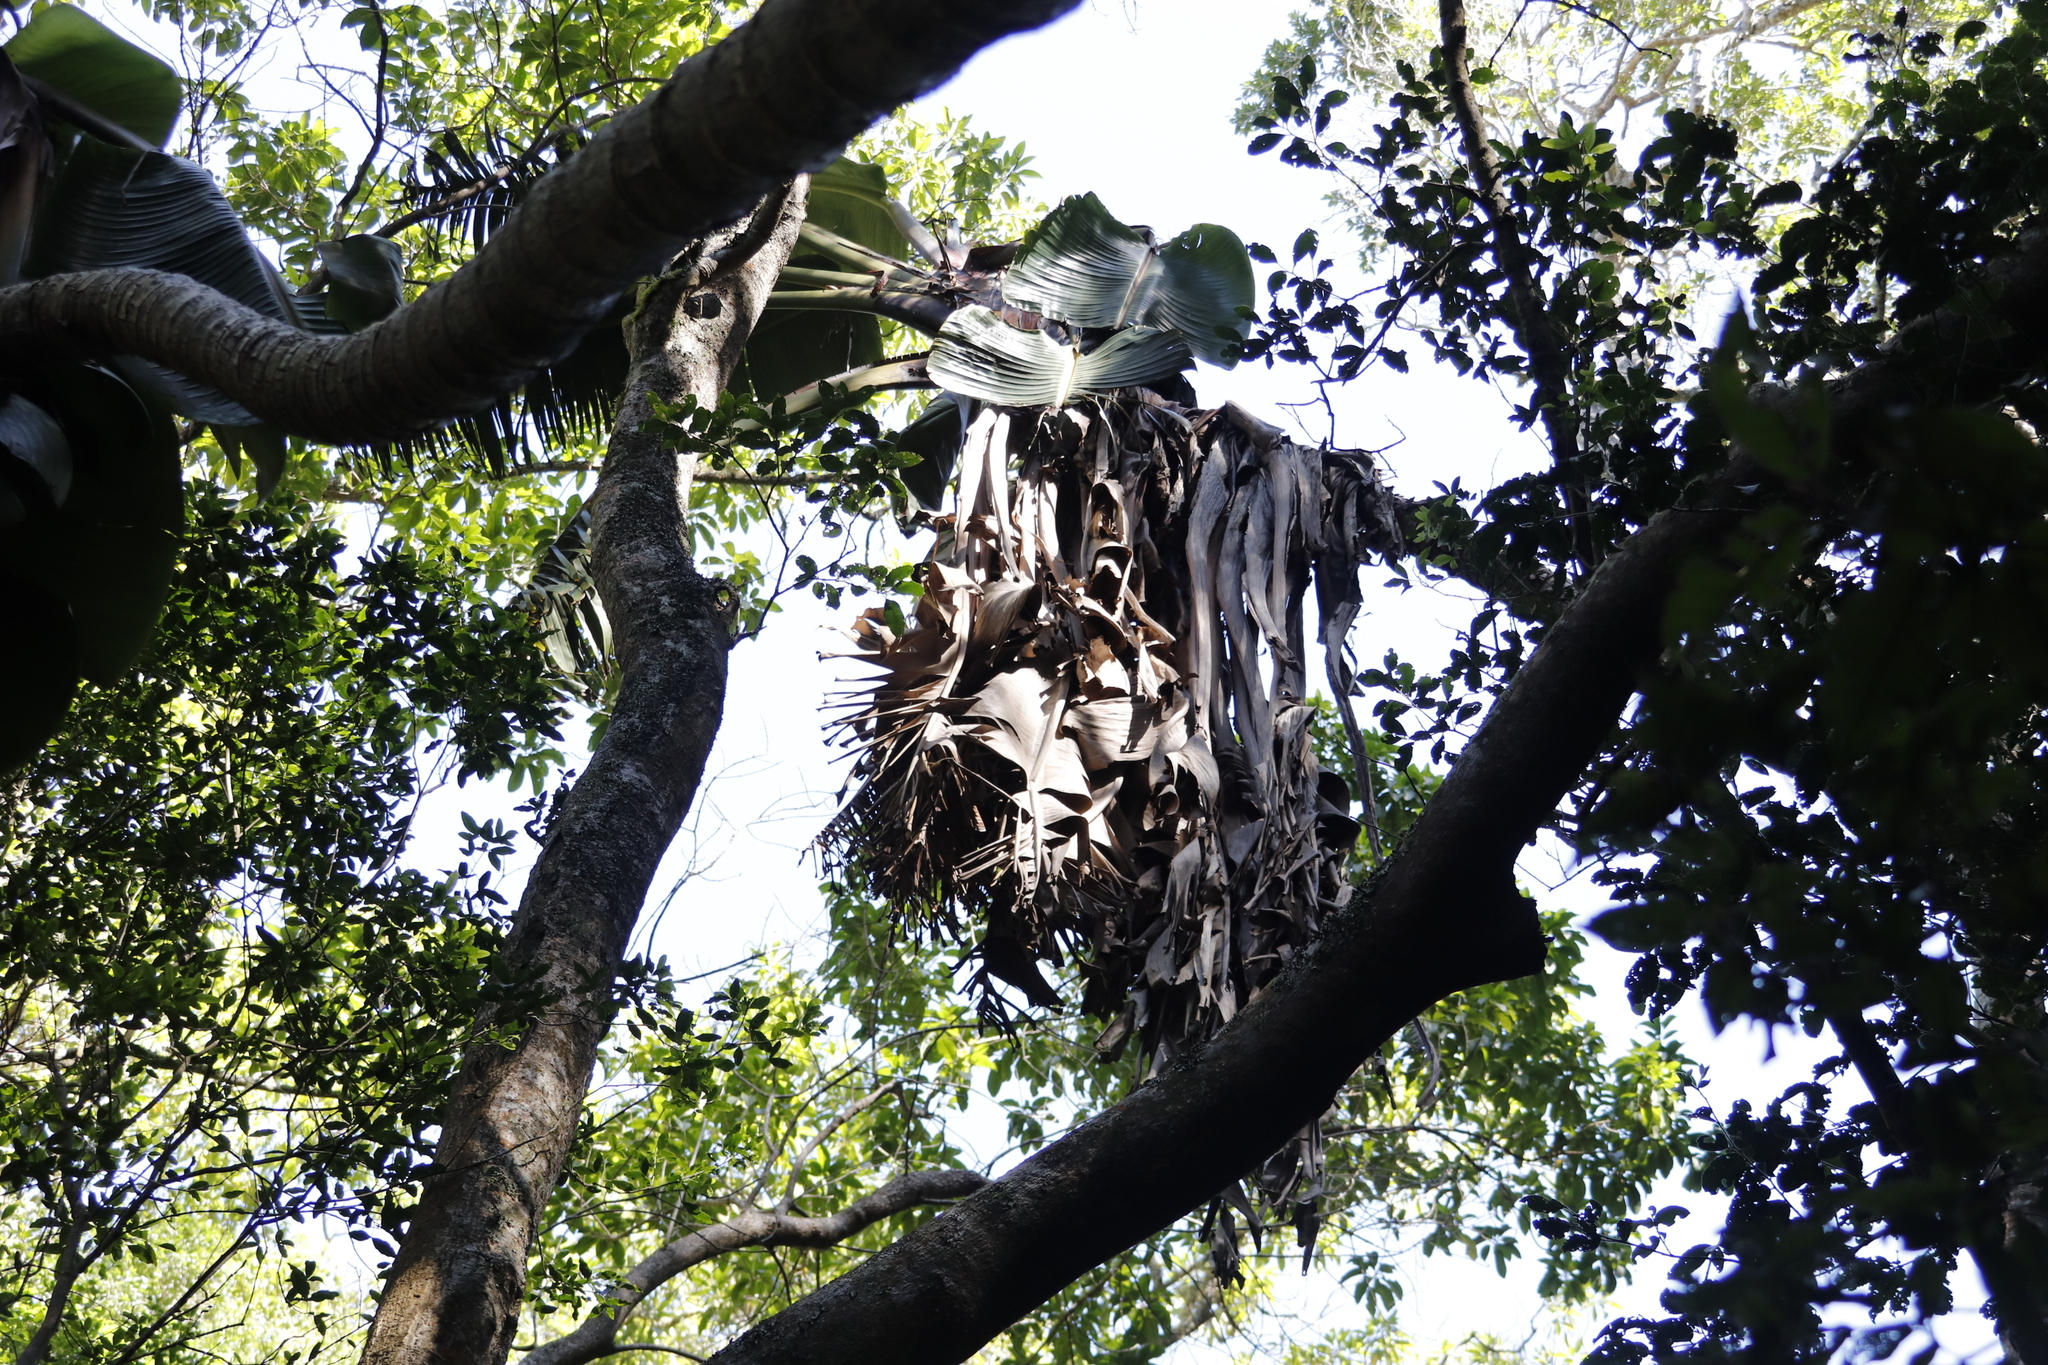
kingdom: Plantae
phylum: Tracheophyta
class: Liliopsida
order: Zingiberales
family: Strelitziaceae
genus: Strelitzia
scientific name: Strelitzia alba
